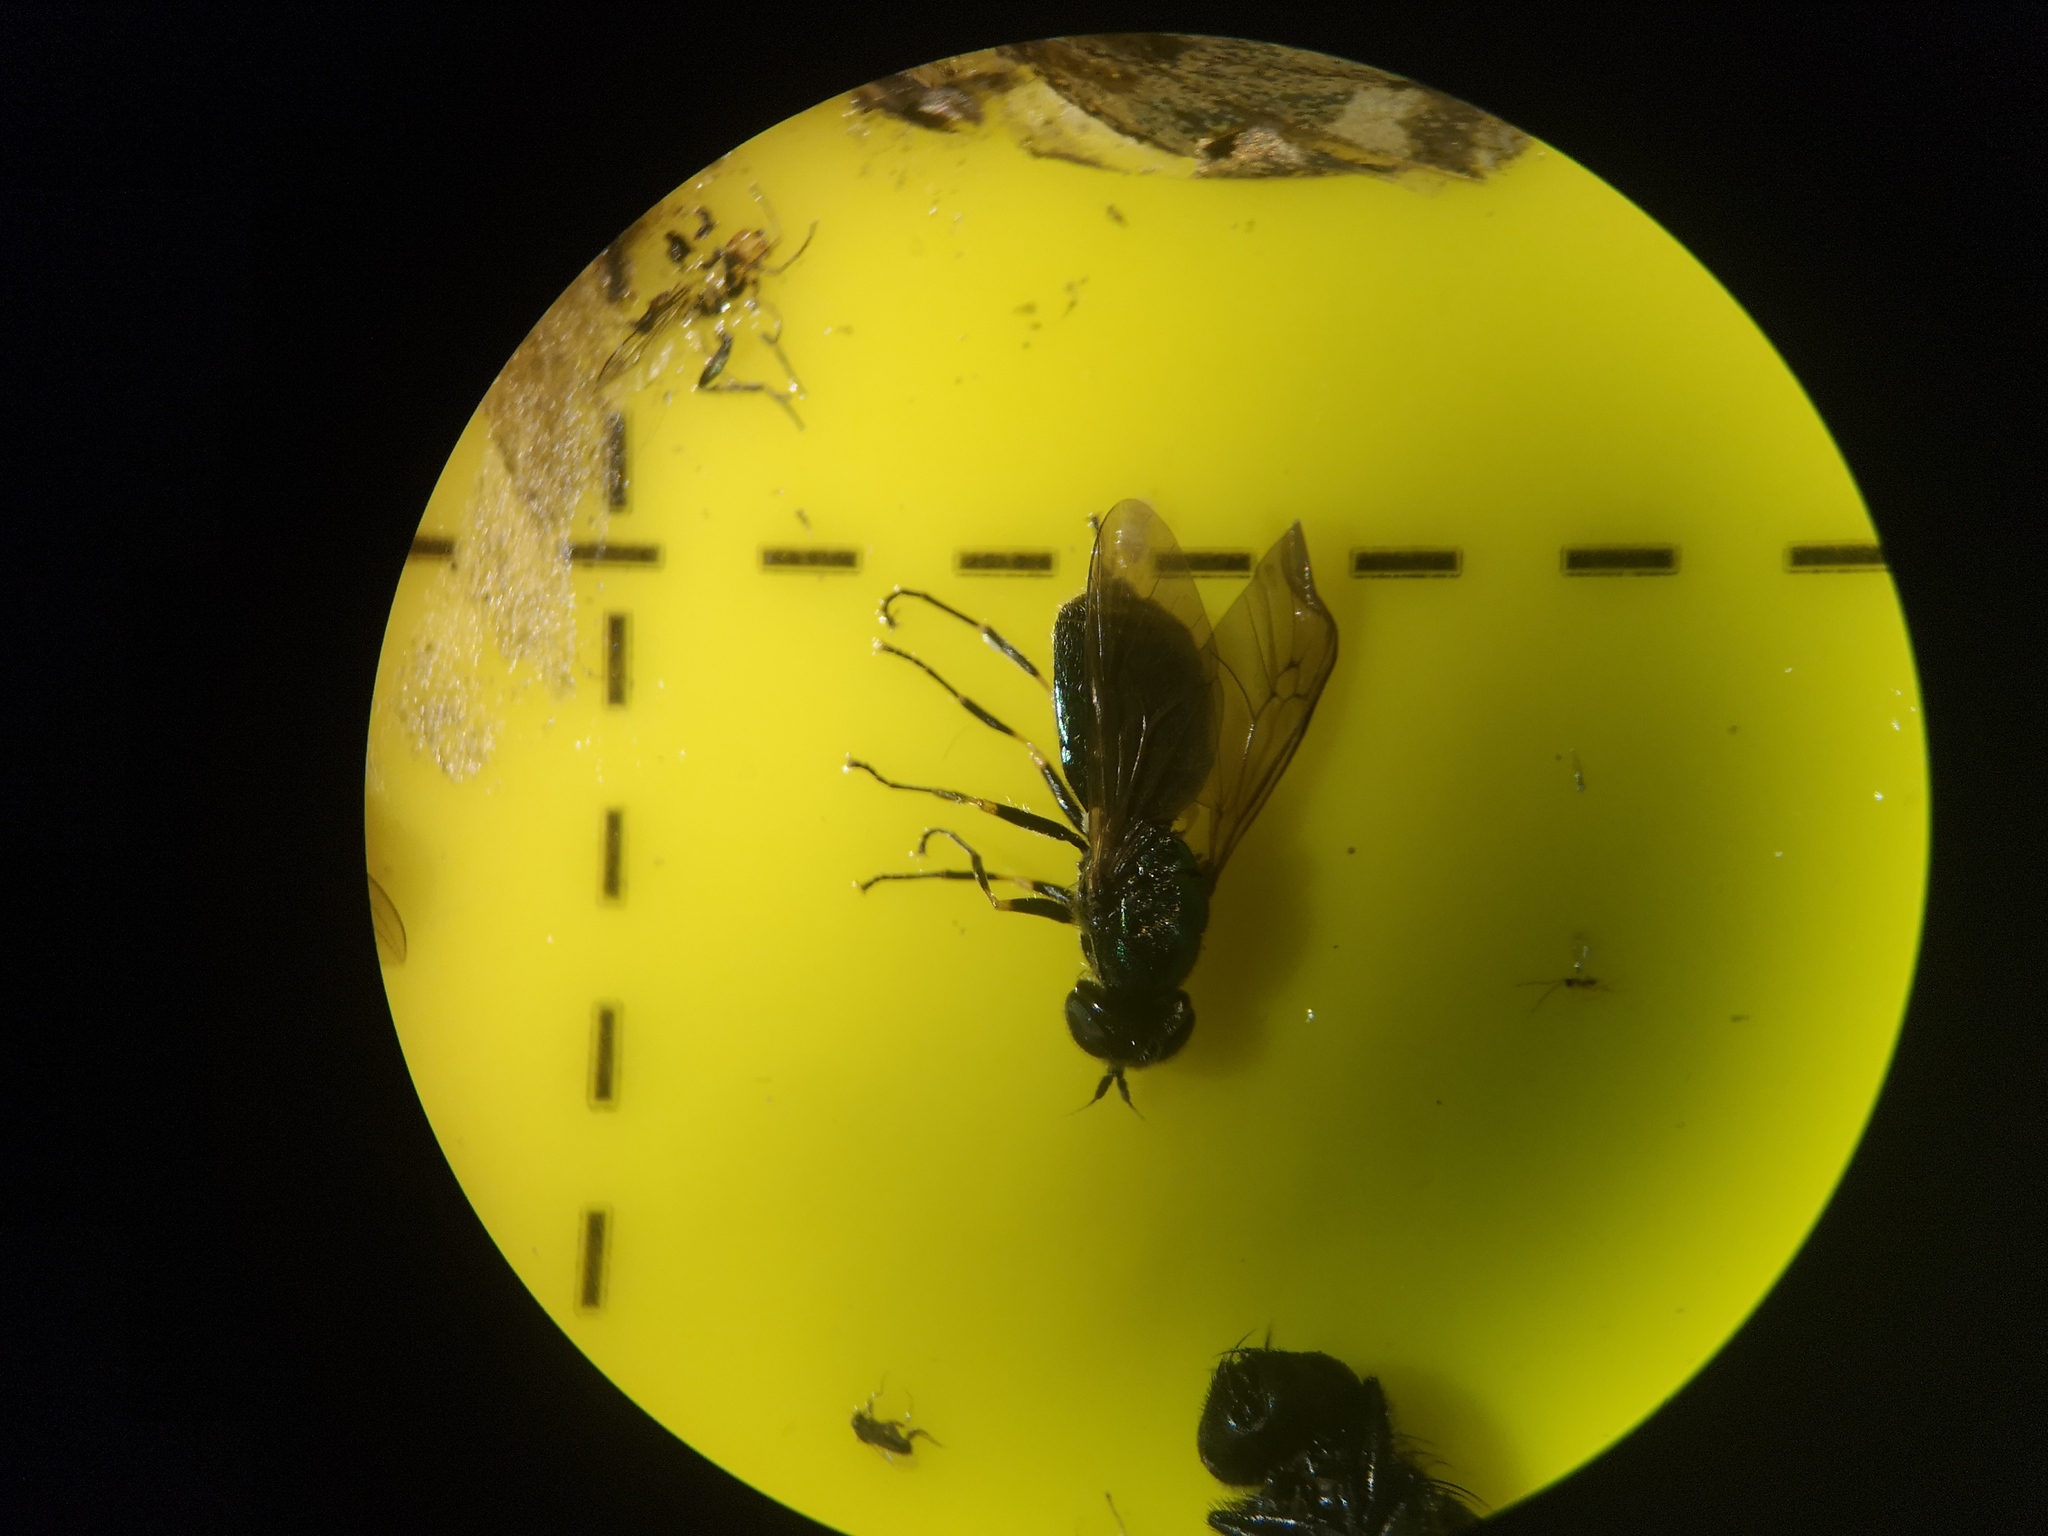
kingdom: Animalia
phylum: Arthropoda
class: Insecta
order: Diptera
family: Stratiomyidae
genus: Chloromyia
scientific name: Chloromyia formosa
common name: Soldier fly
